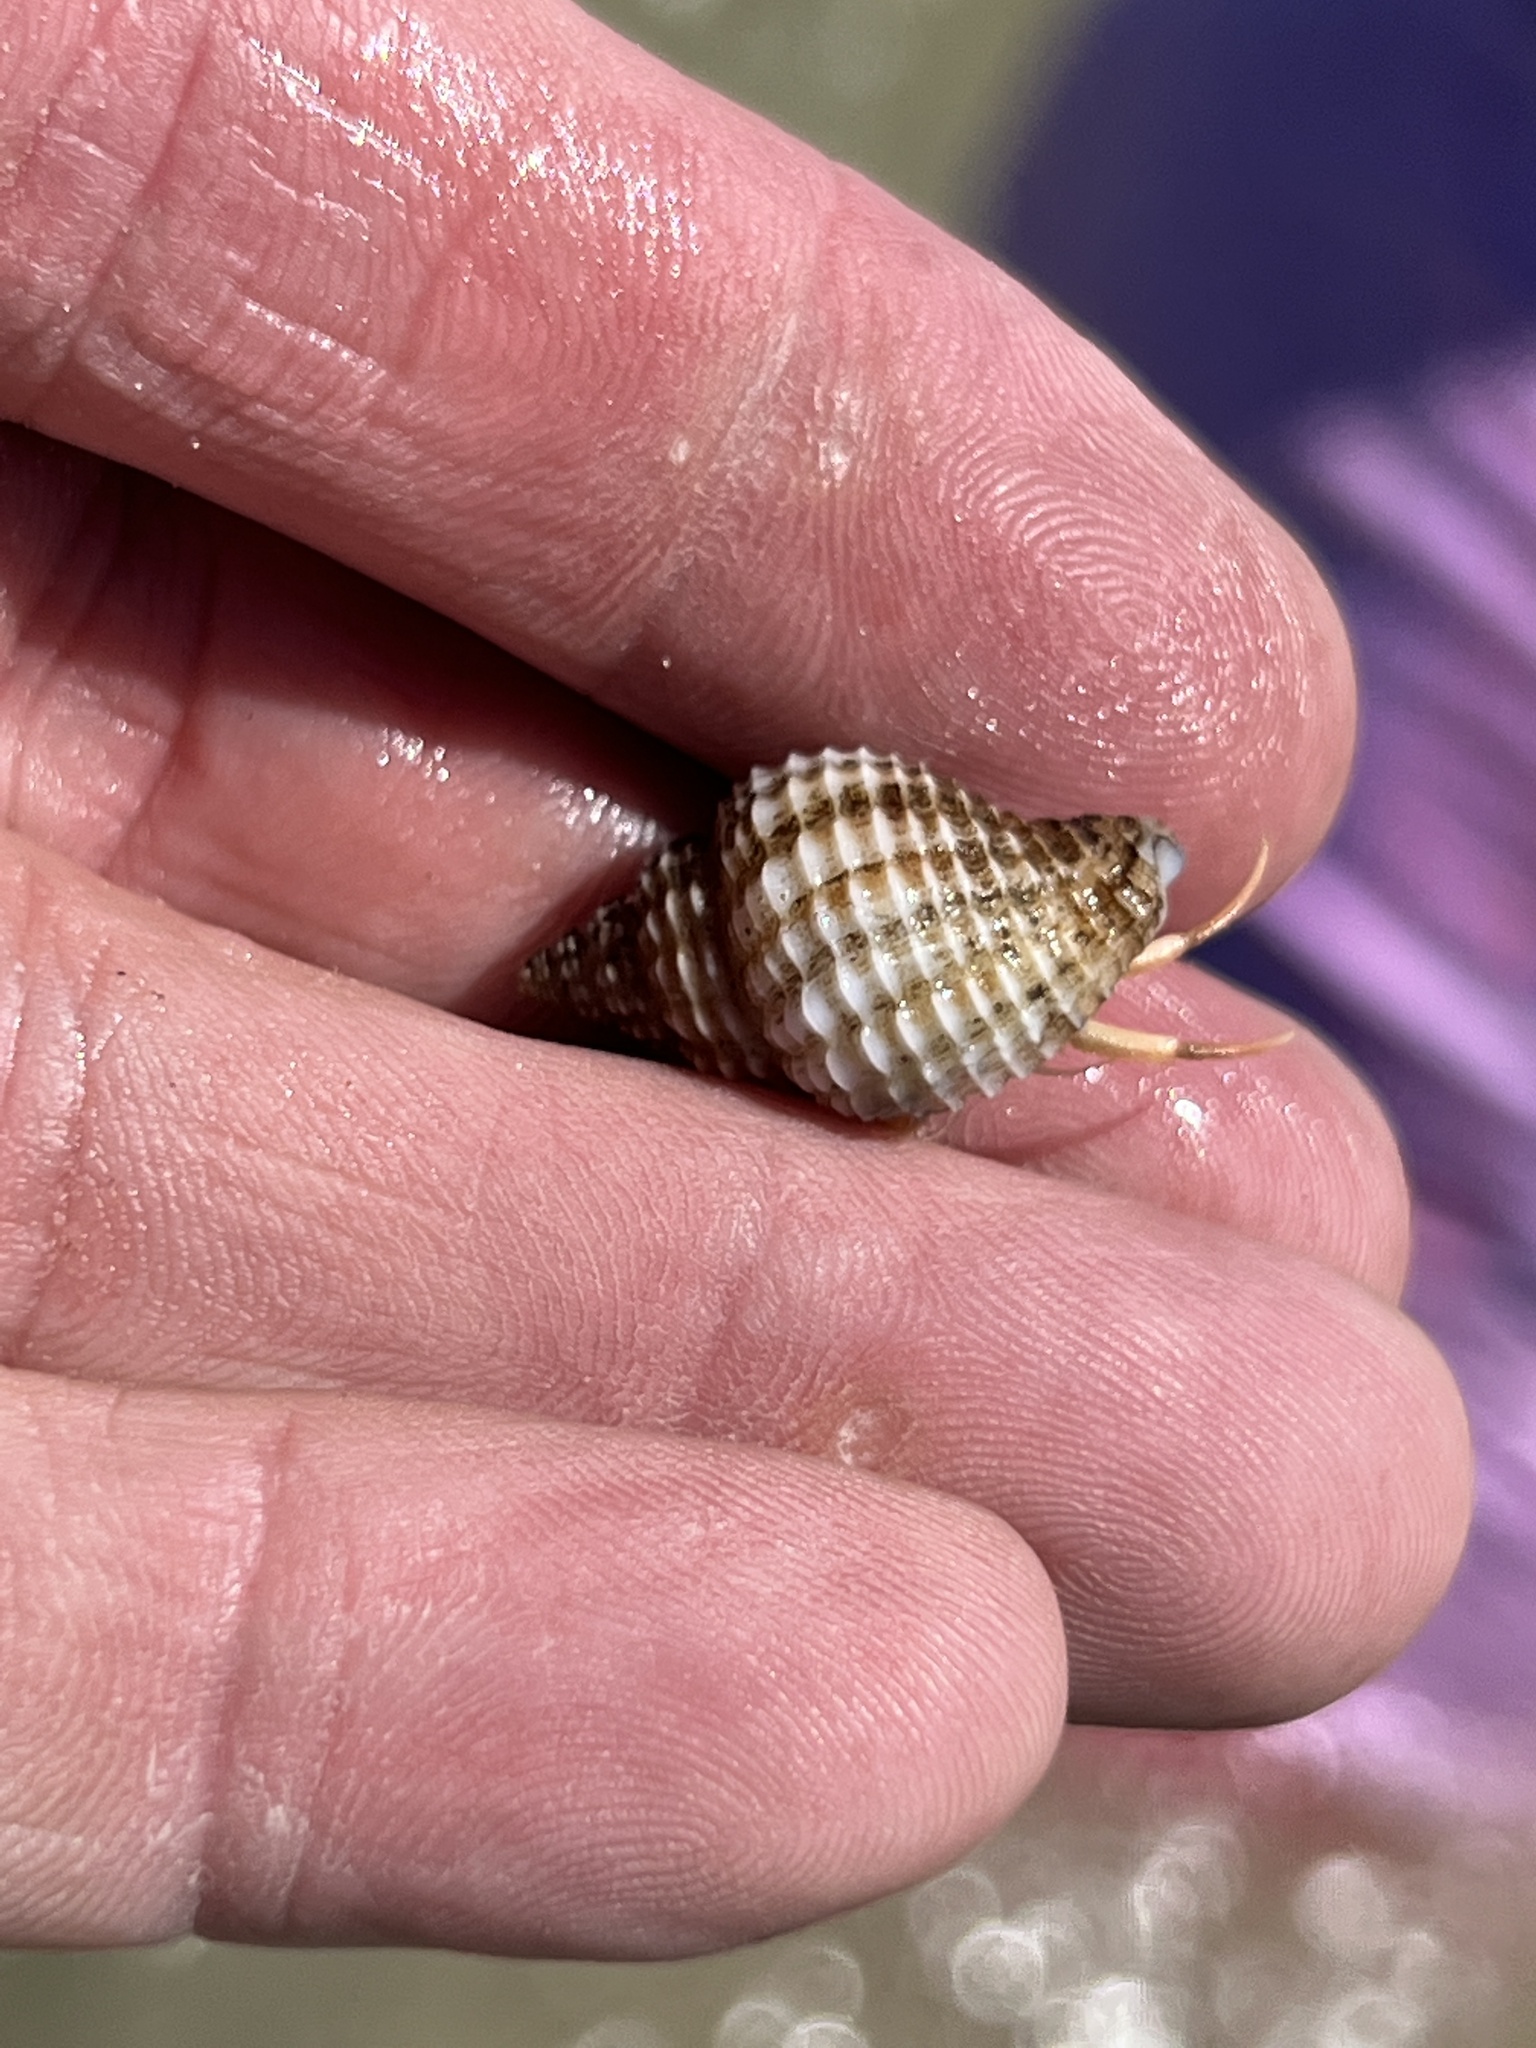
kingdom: Animalia
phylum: Mollusca
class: Gastropoda
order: Neogastropoda
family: Pisaniidae
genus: Solenosteira
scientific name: Solenosteira cancellaria
